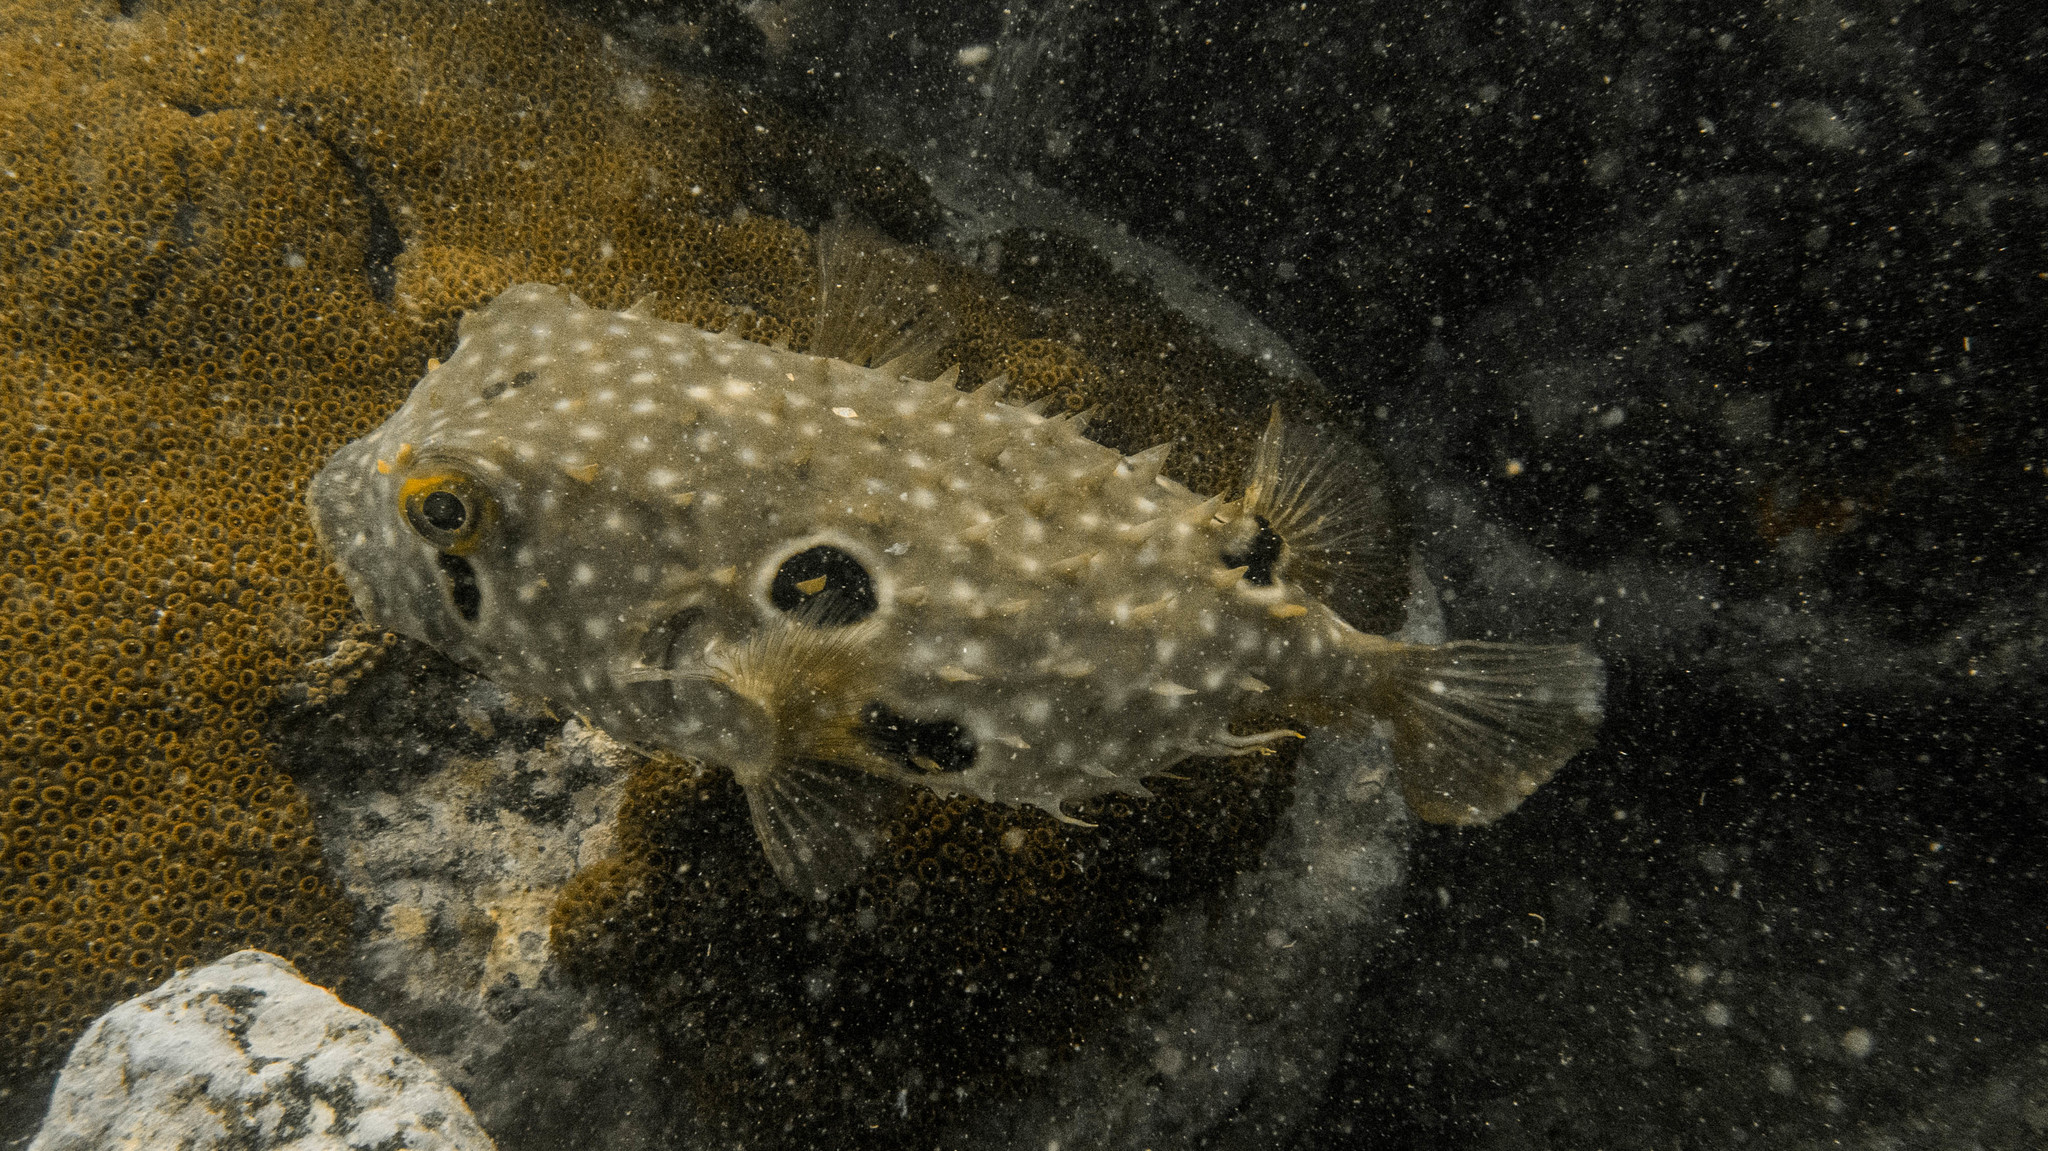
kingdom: Animalia
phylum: Chordata
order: Tetraodontiformes
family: Diodontidae
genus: Chilomycterus
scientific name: Chilomycterus spinosus
